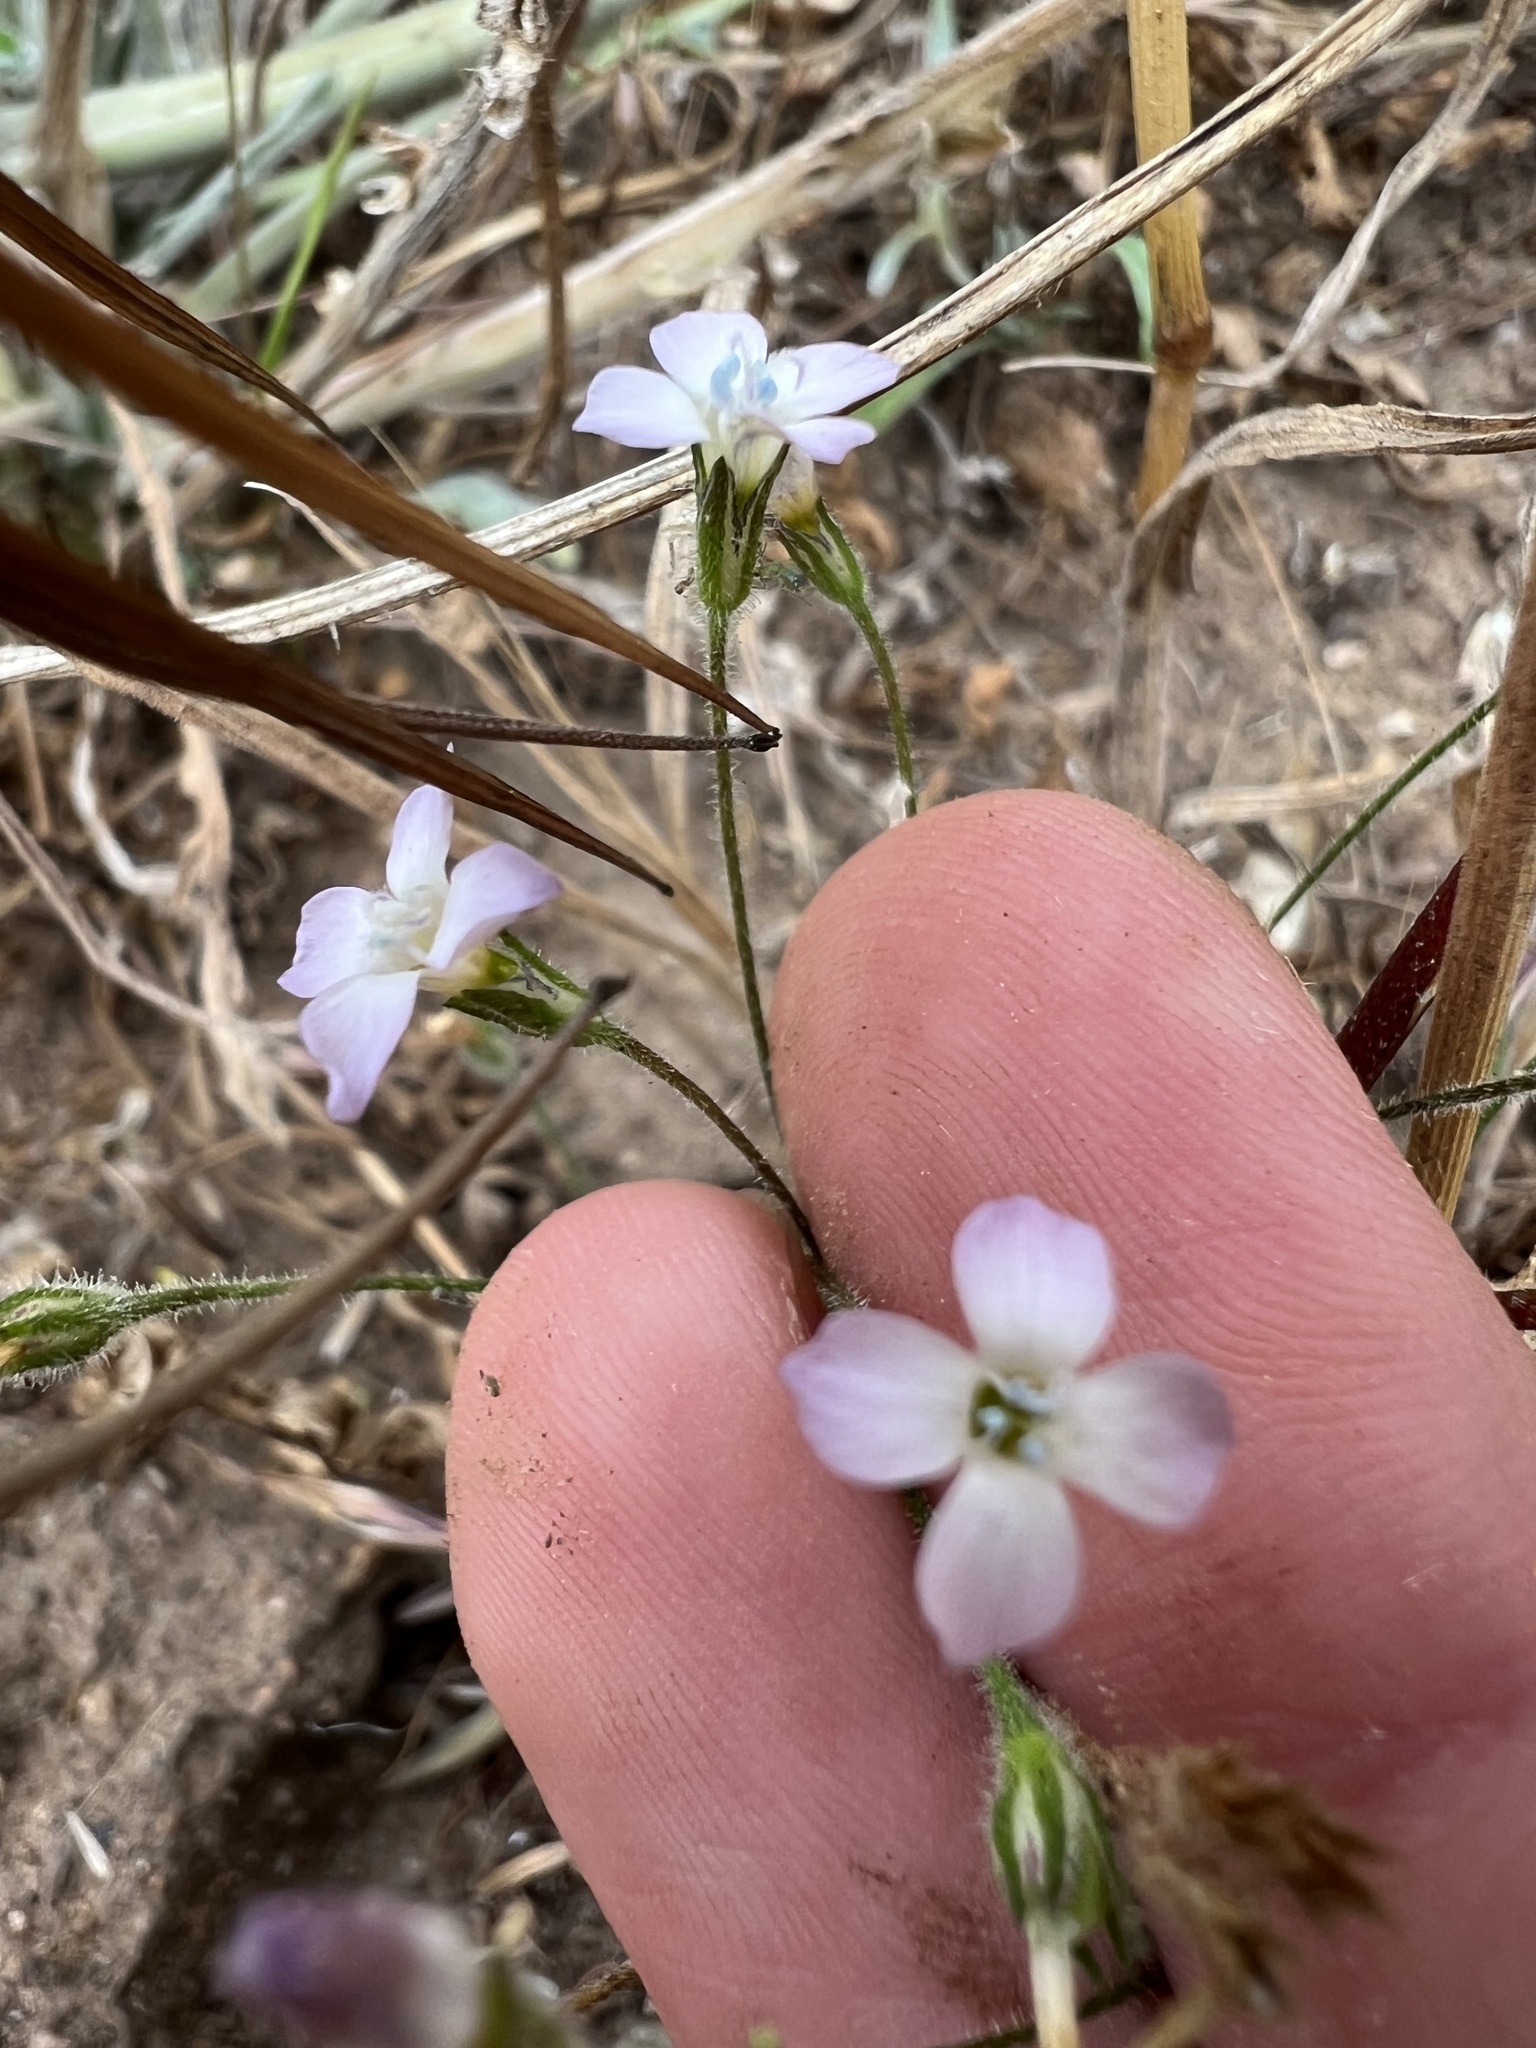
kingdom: Plantae
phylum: Tracheophyta
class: Magnoliopsida
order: Ericales
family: Polemoniaceae
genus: Gilia
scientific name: Gilia angelensis
